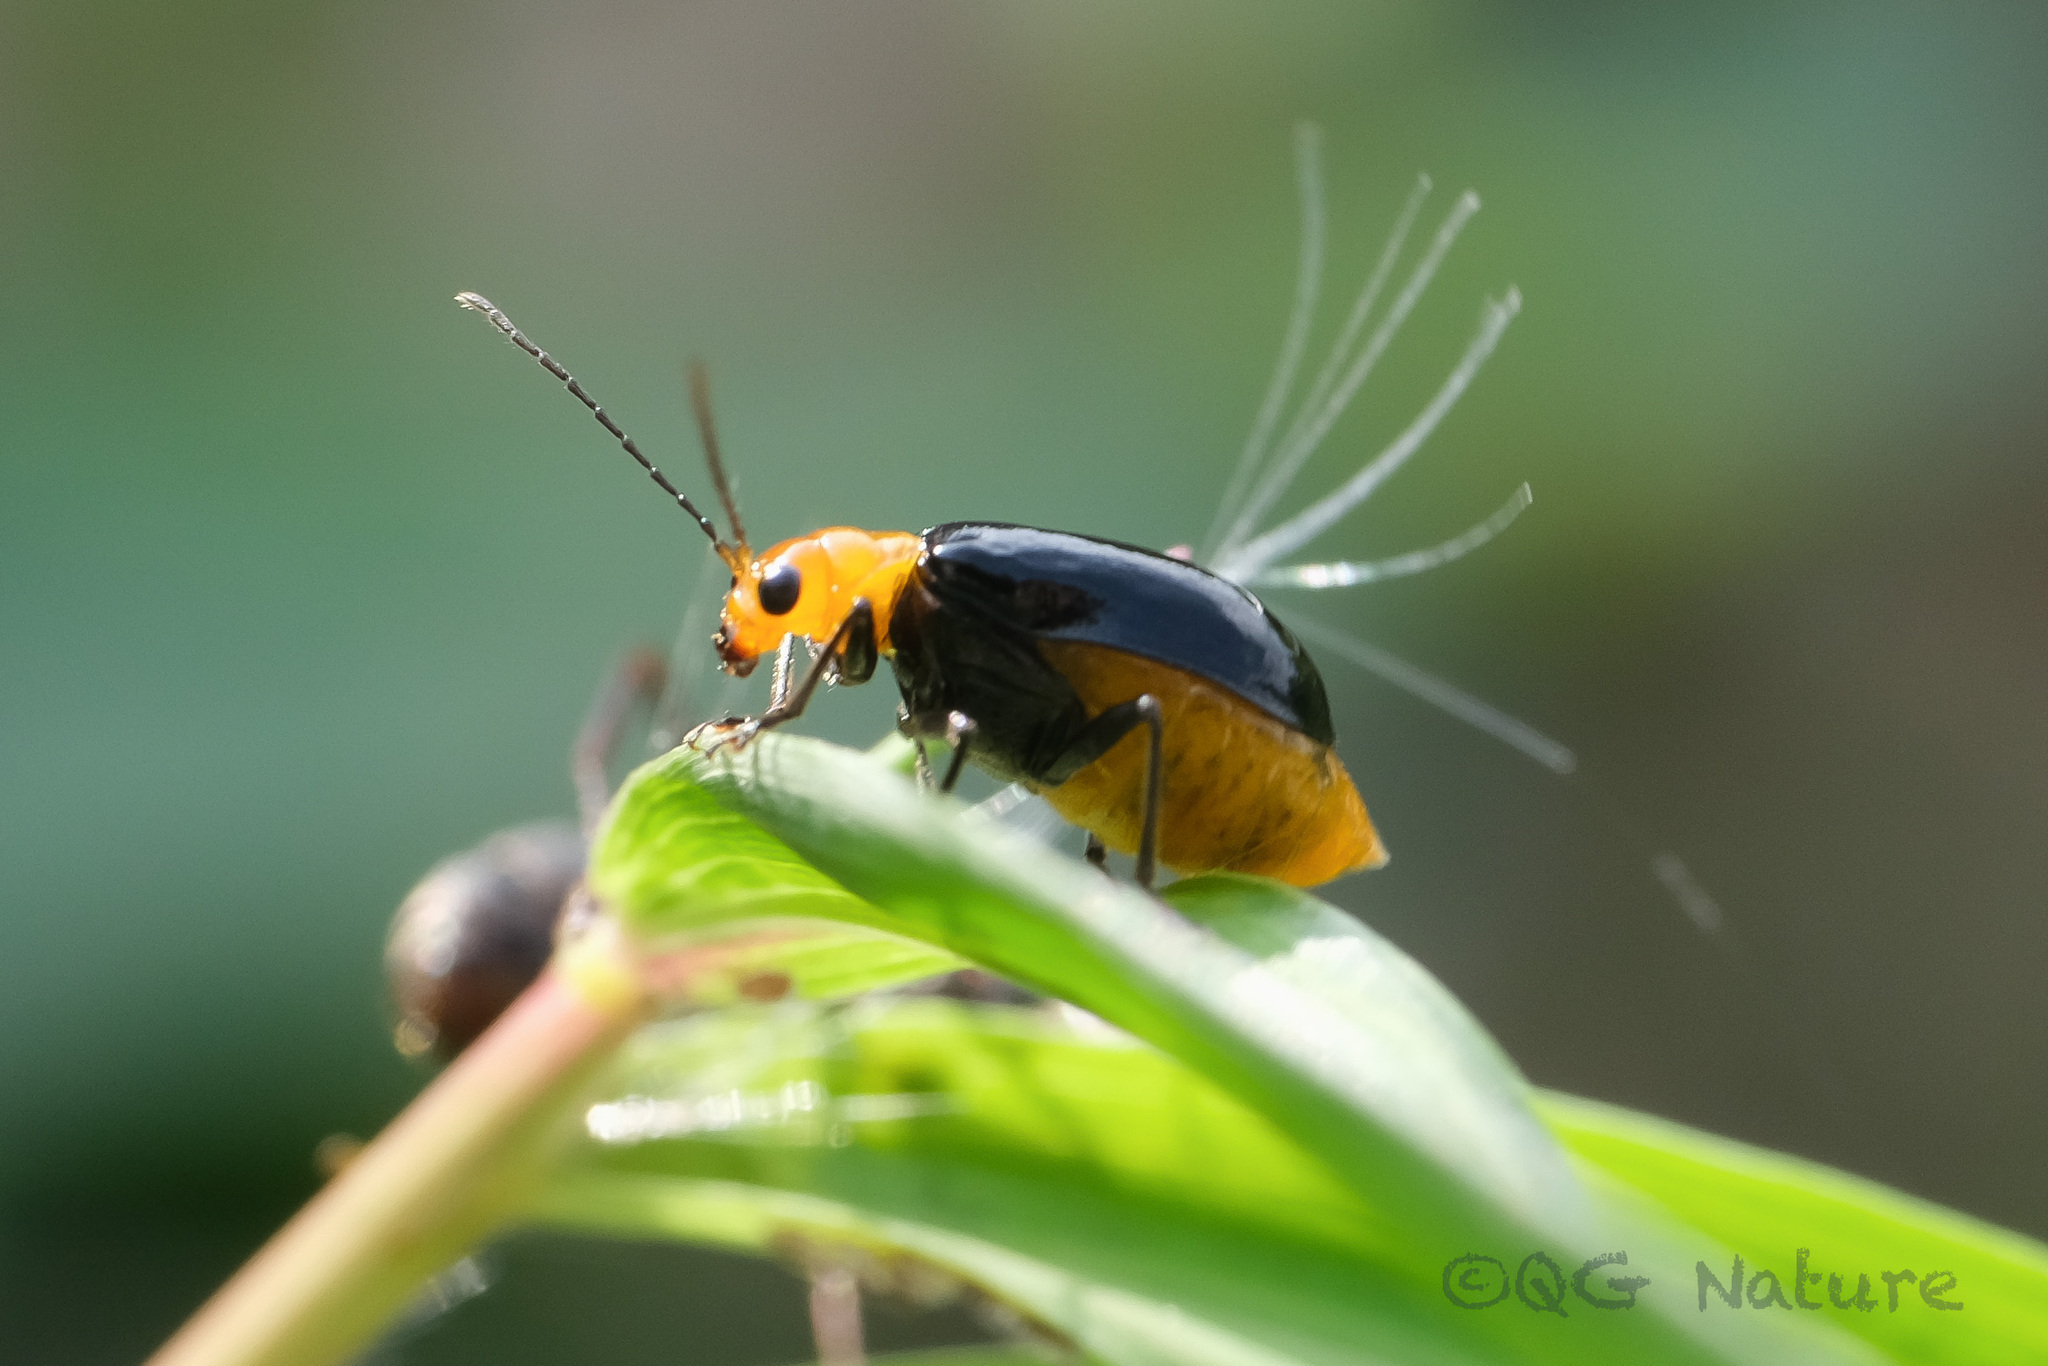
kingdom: Animalia
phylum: Arthropoda
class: Insecta
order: Coleoptera
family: Chrysomelidae
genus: Aulacophora
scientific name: Aulacophora nigripennis
